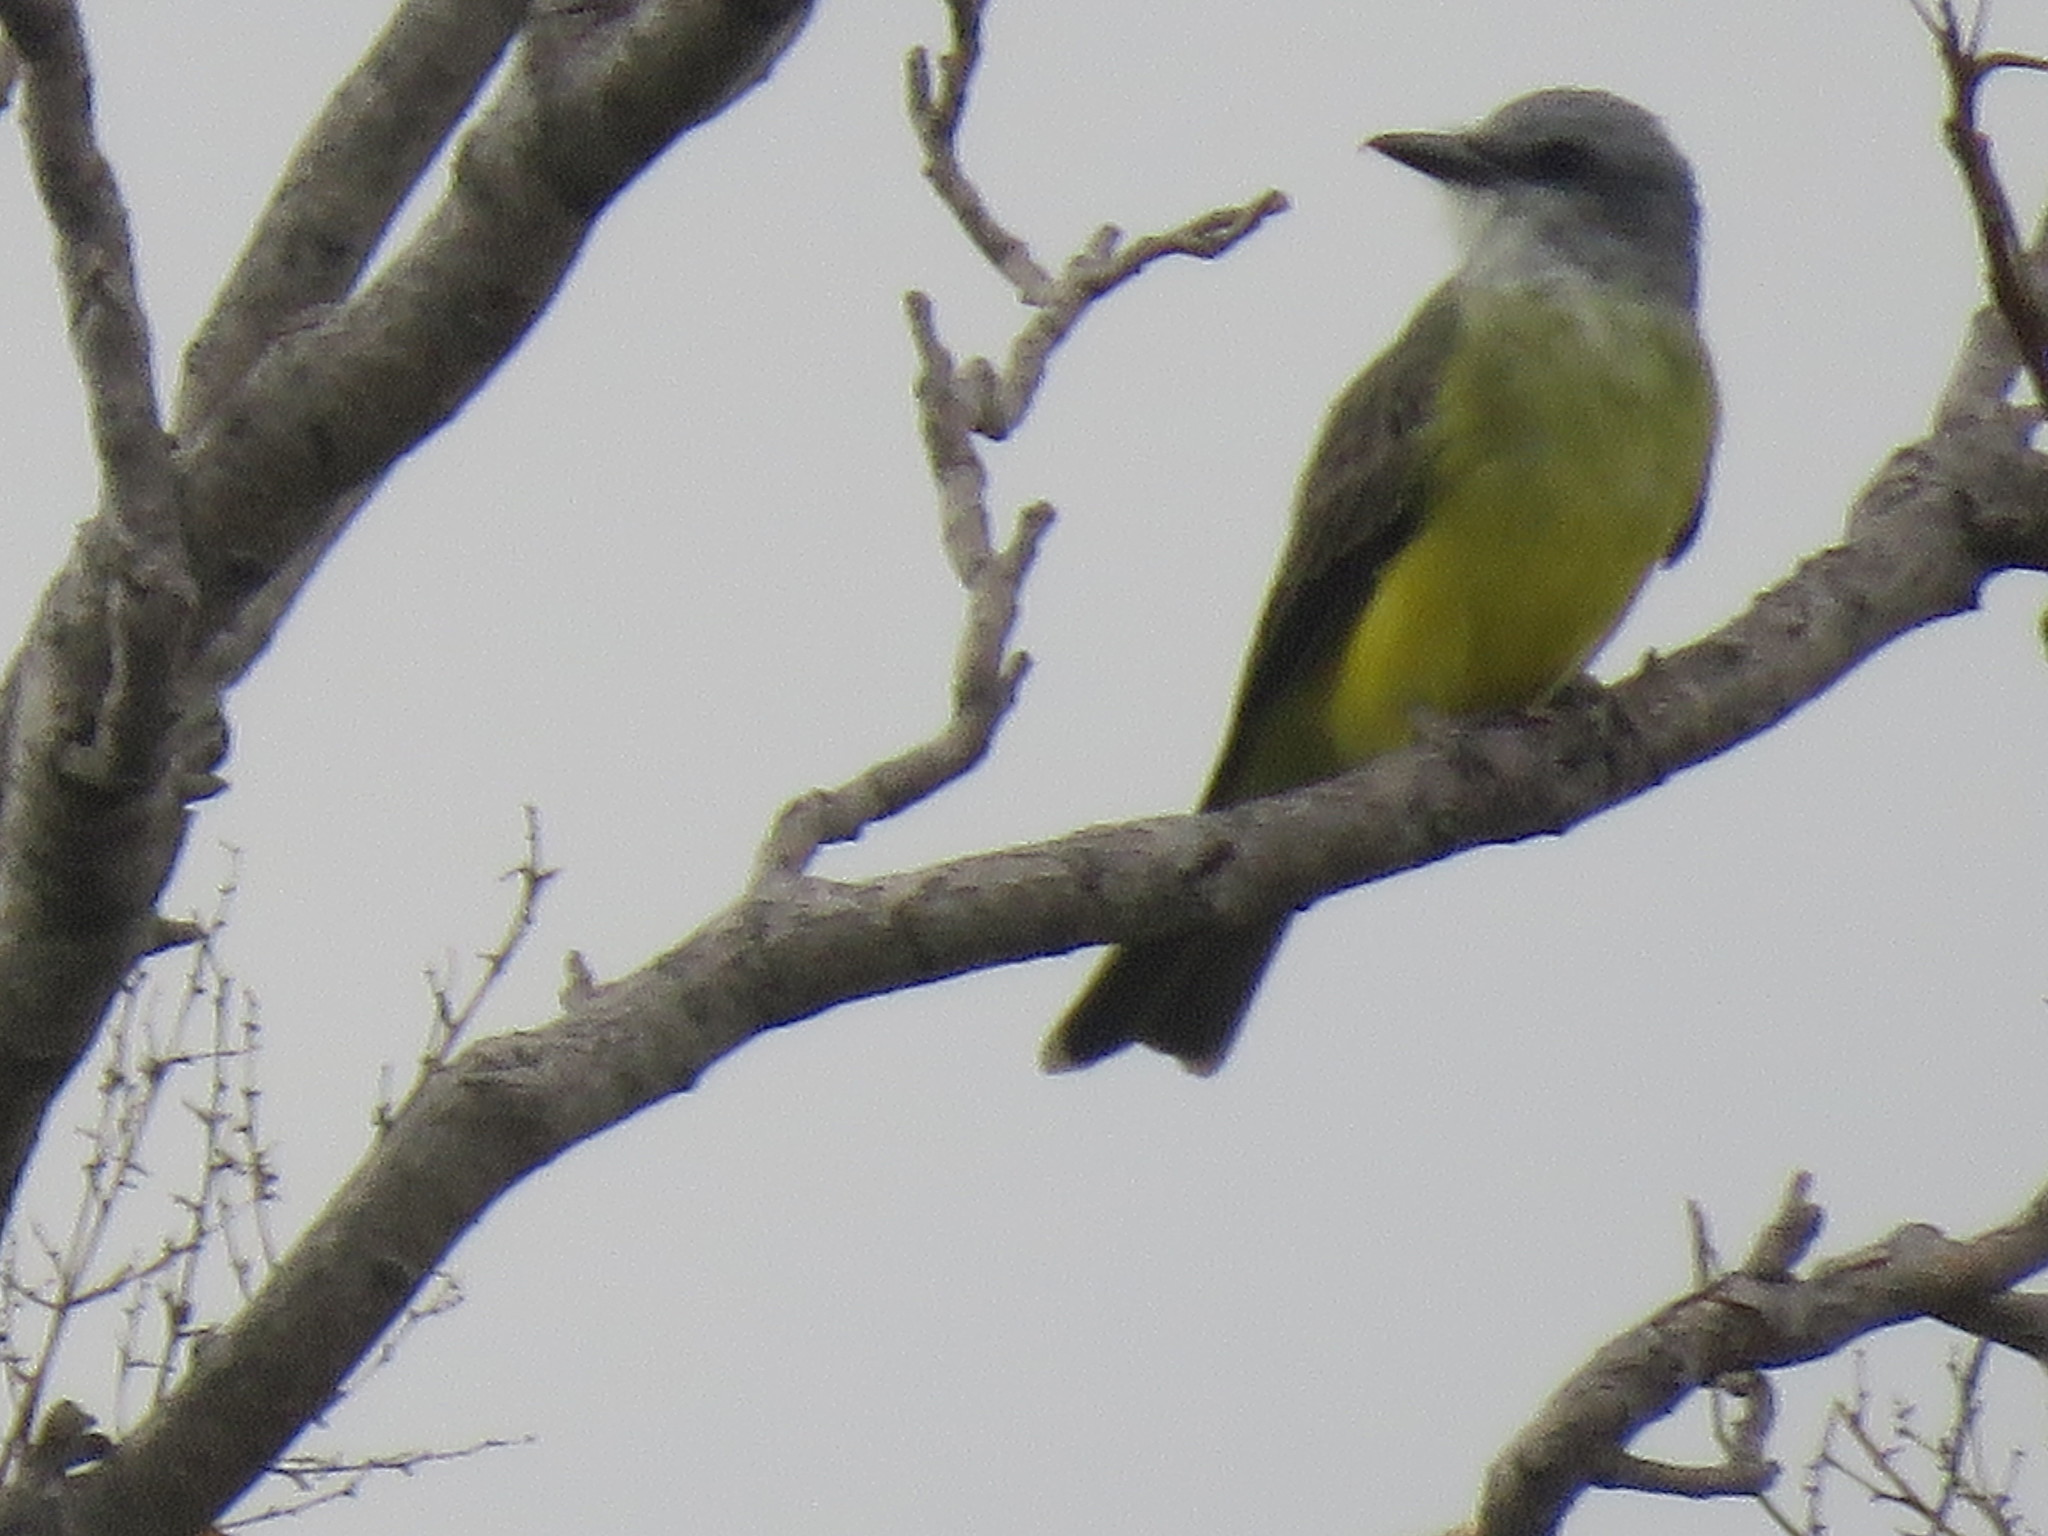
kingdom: Animalia
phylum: Chordata
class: Aves
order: Passeriformes
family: Tyrannidae
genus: Tyrannus
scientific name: Tyrannus couchii
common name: Couch's kingbird
